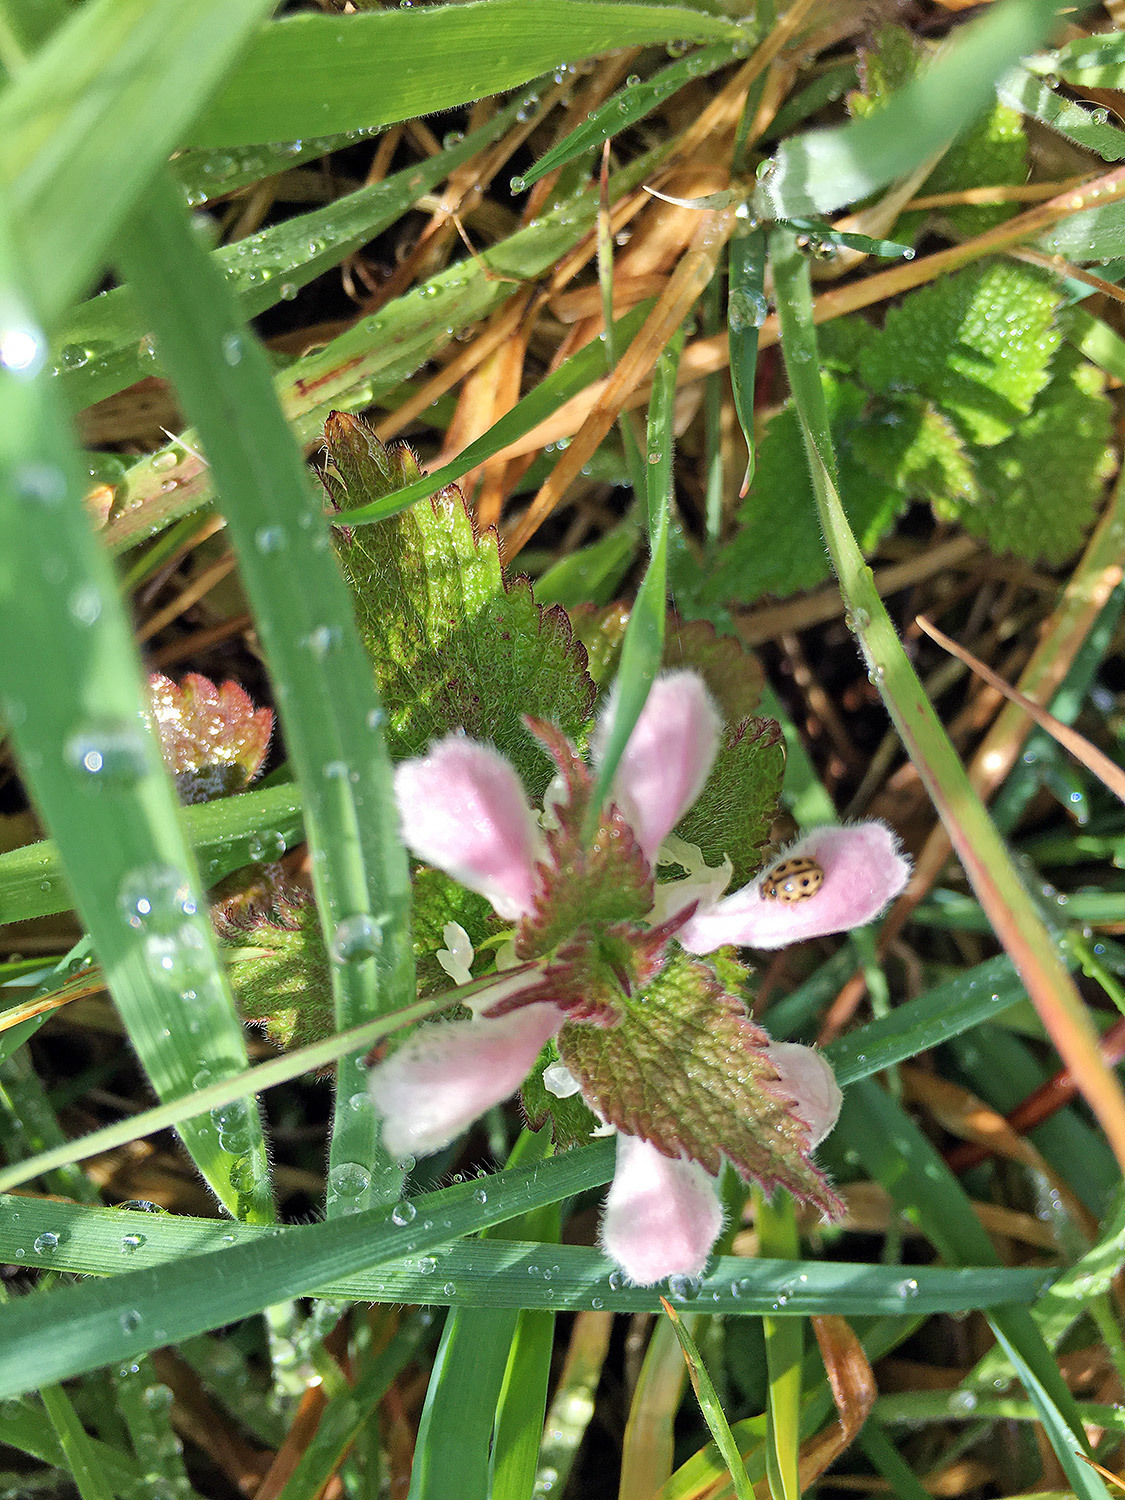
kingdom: Animalia
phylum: Arthropoda
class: Insecta
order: Coleoptera
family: Coccinellidae
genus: Tytthaspis
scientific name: Tytthaspis sedecimpunctata
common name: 16-spot ladybird
